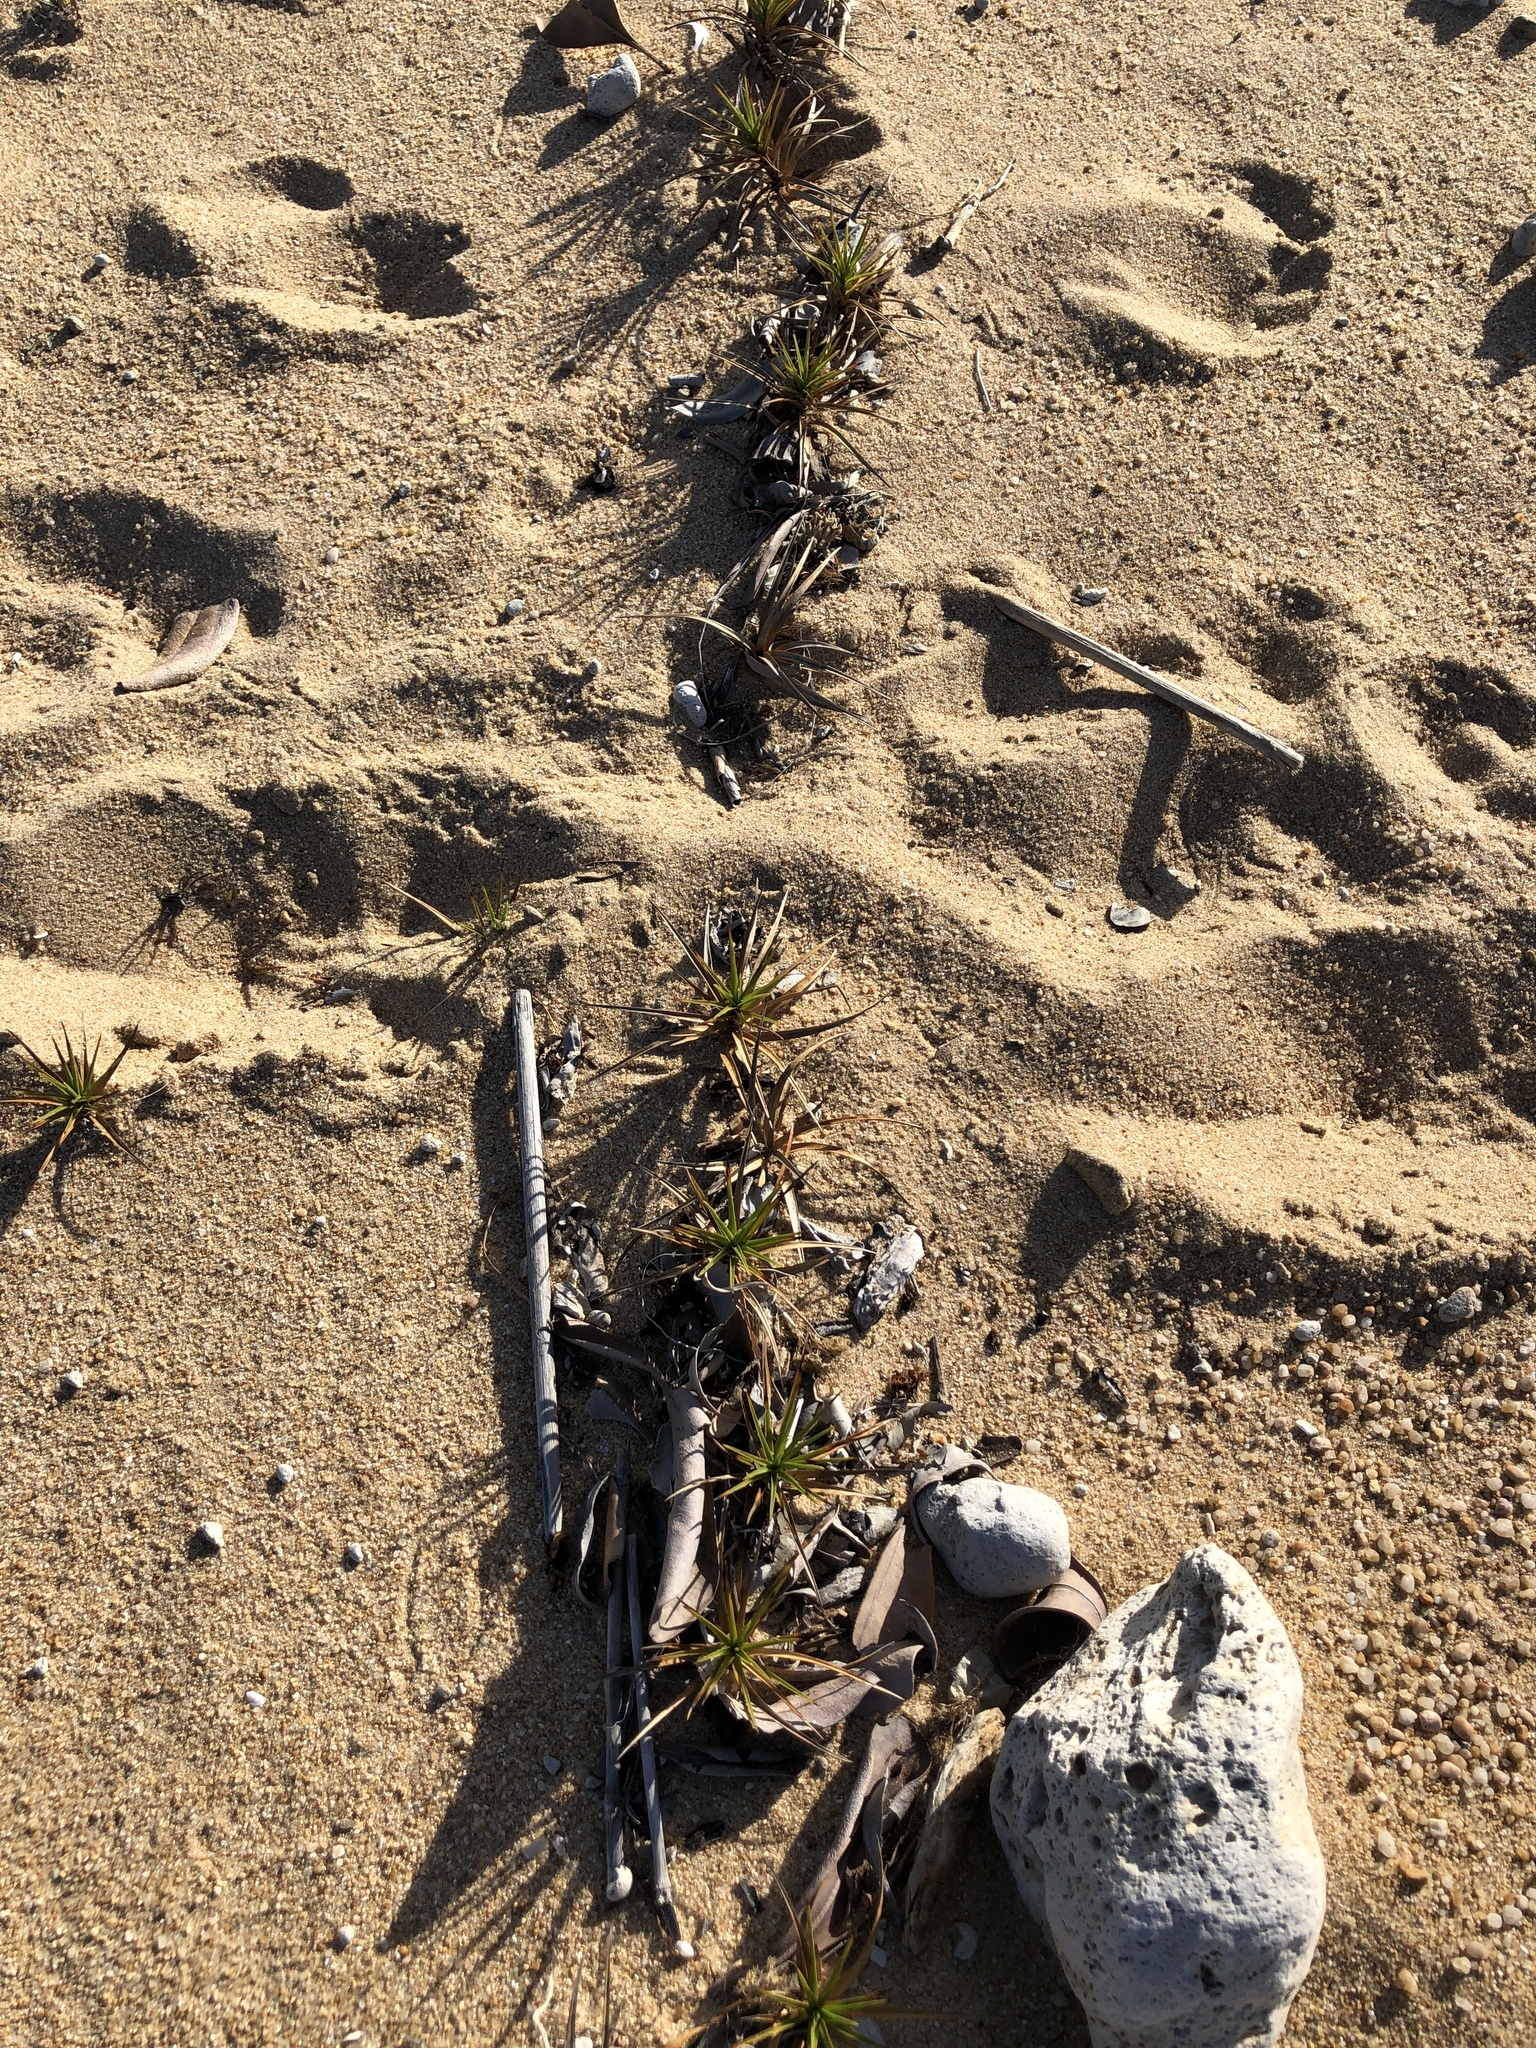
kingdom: Plantae
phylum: Tracheophyta
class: Liliopsida
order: Poales
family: Cyperaceae
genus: Cyperus
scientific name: Cyperus pedunculatus
